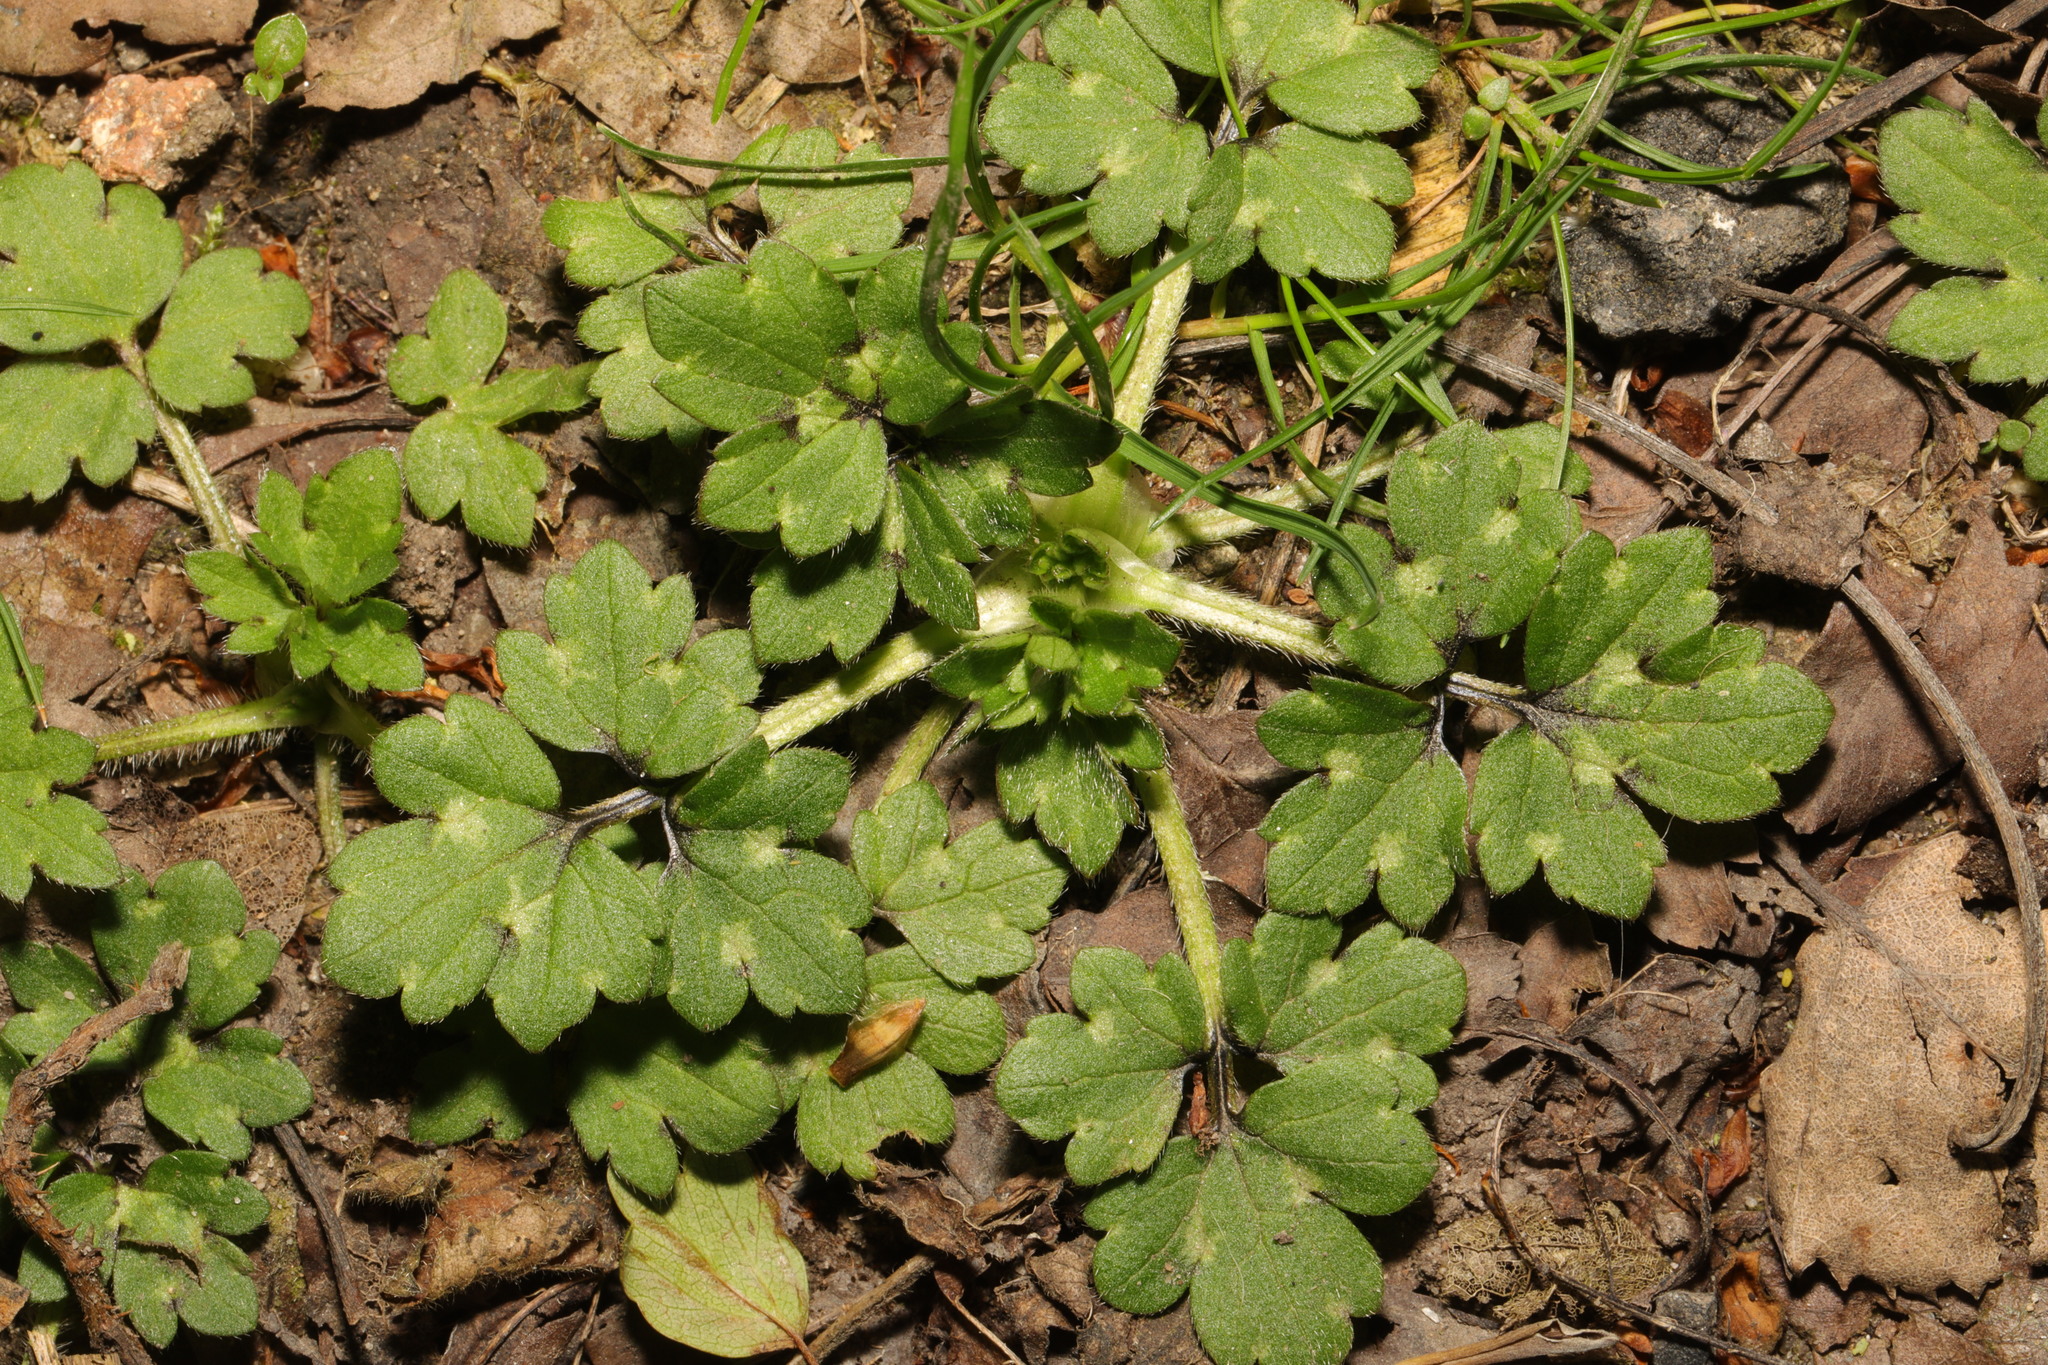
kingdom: Plantae
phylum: Tracheophyta
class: Magnoliopsida
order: Ranunculales
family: Ranunculaceae
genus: Ranunculus
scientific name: Ranunculus repens
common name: Creeping buttercup
